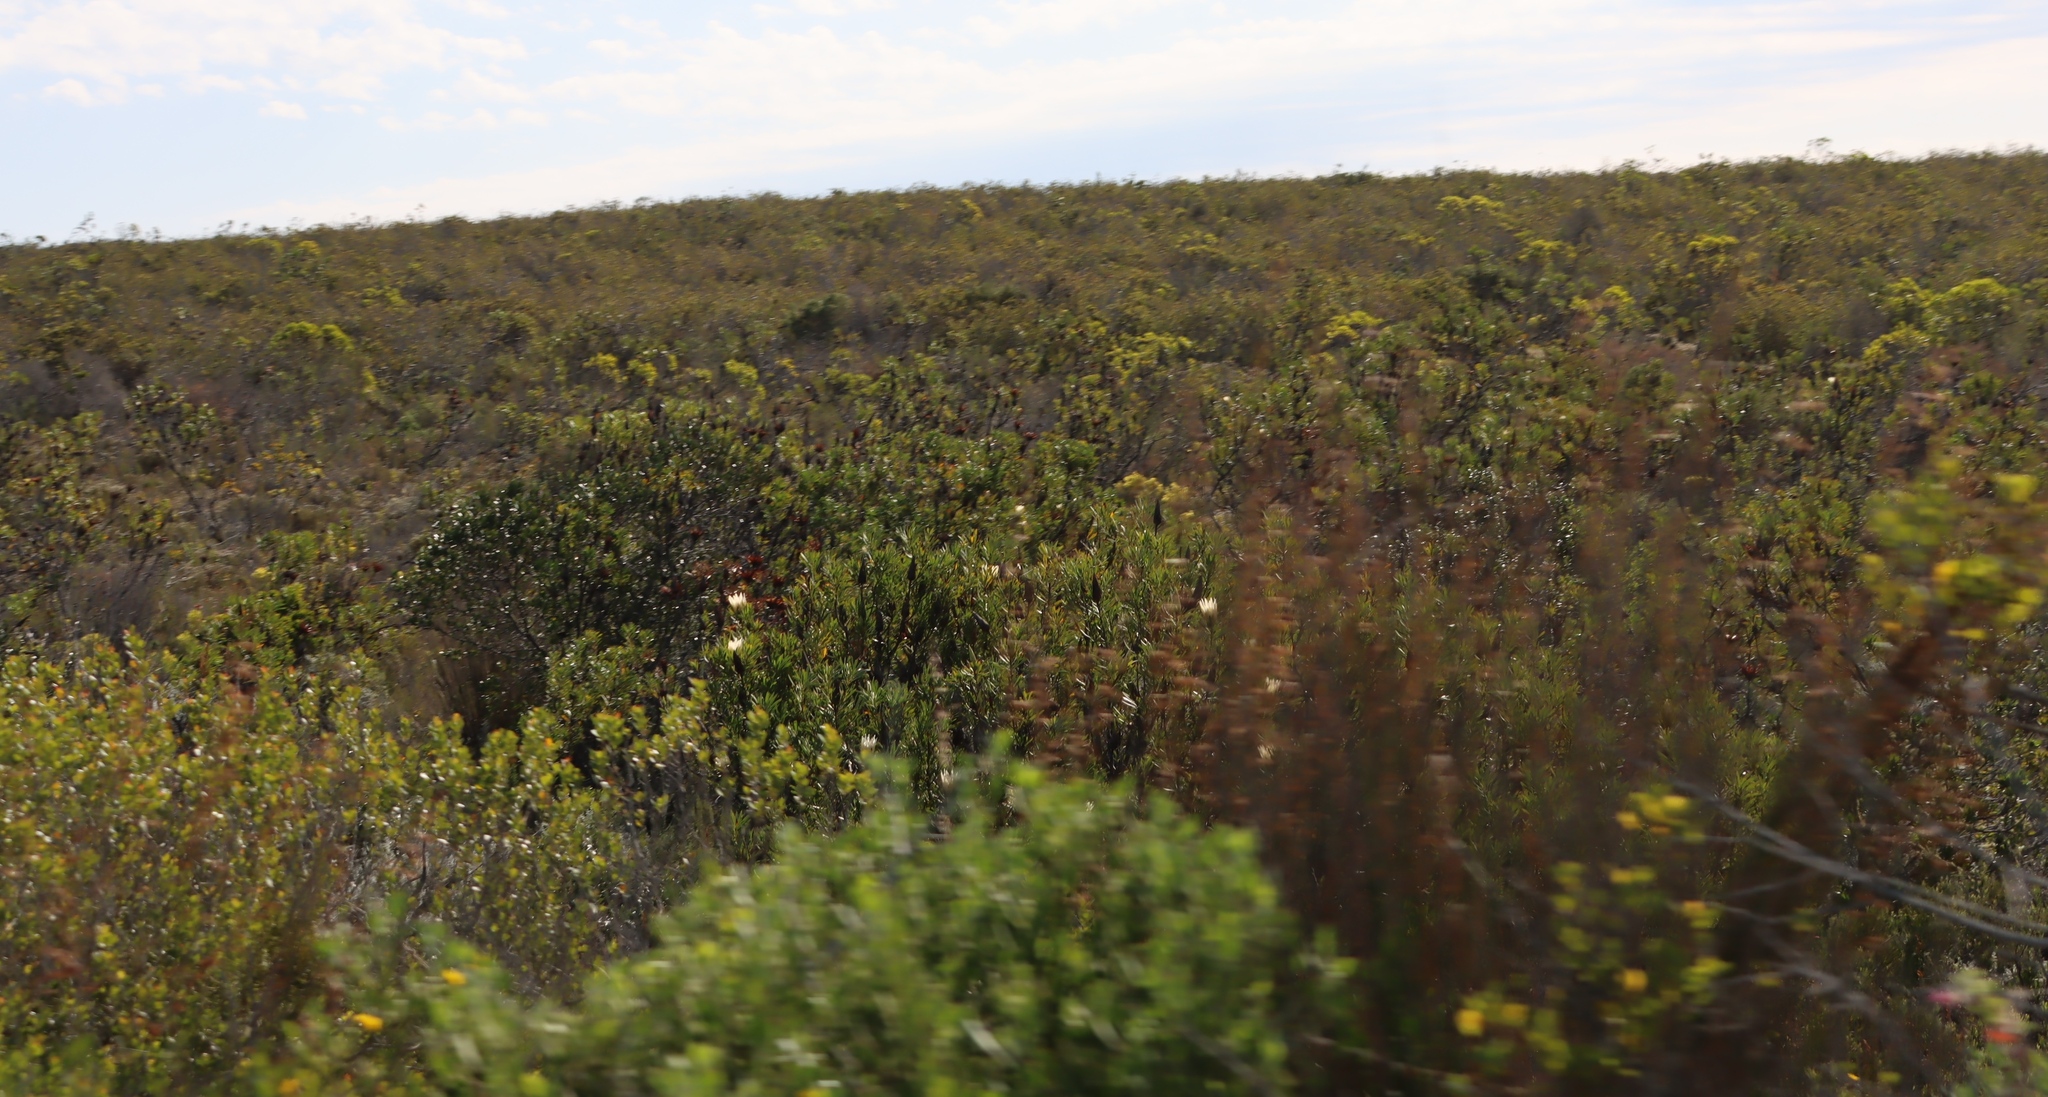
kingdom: Plantae
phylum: Tracheophyta
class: Magnoliopsida
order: Proteales
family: Proteaceae
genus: Protea
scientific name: Protea repens
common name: Sugarbush
